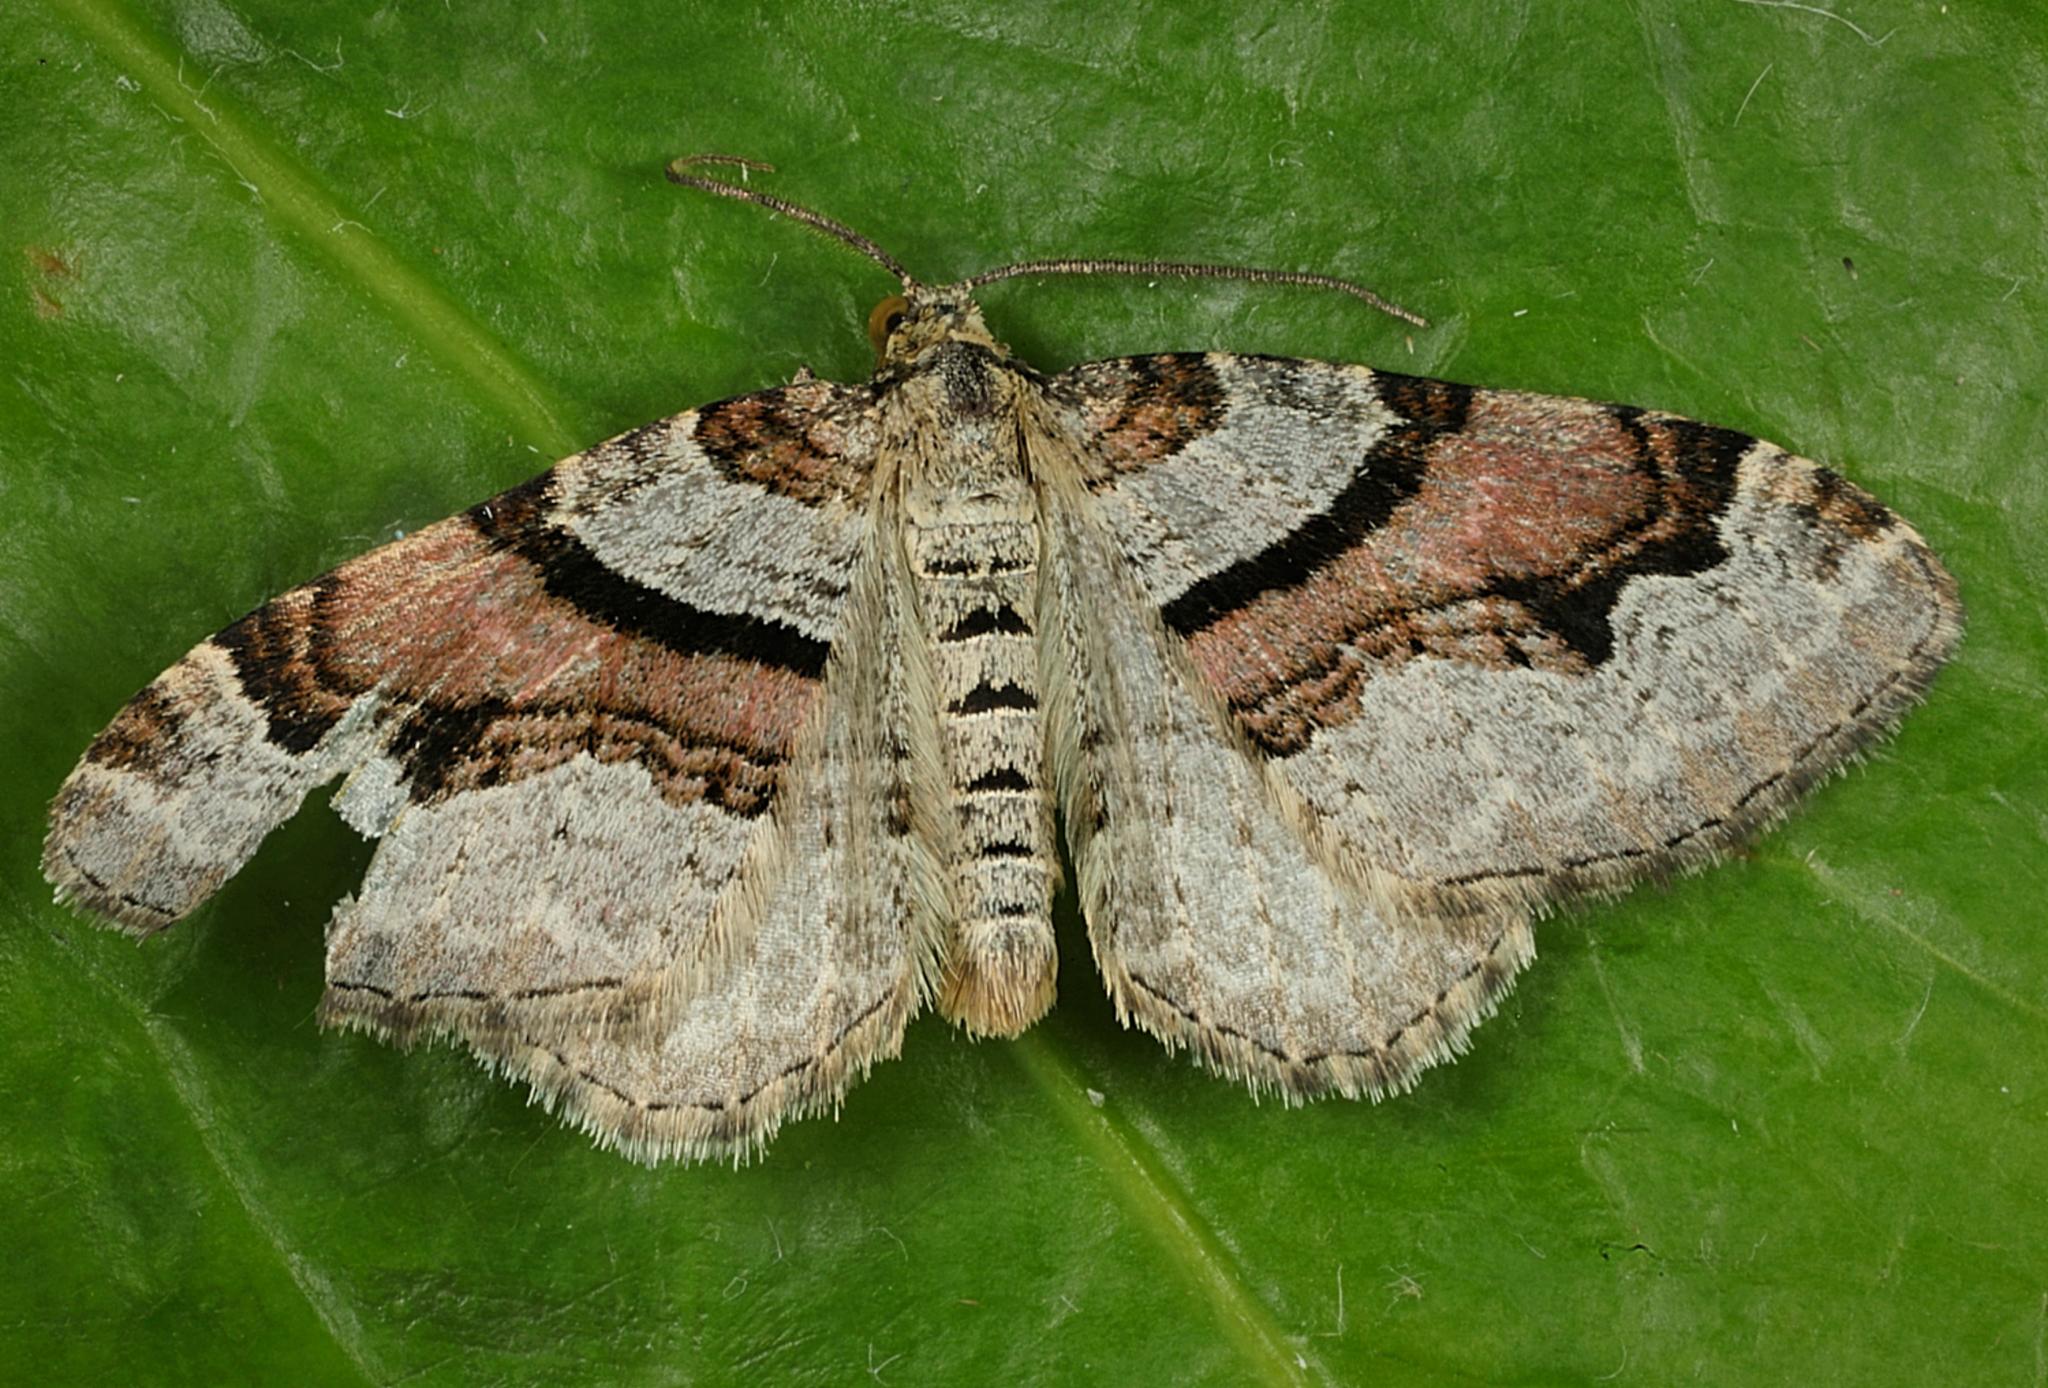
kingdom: Animalia
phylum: Arthropoda
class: Insecta
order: Lepidoptera
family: Geometridae
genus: Xanthorhoe
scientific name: Xanthorhoe designata
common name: Flame carpet
